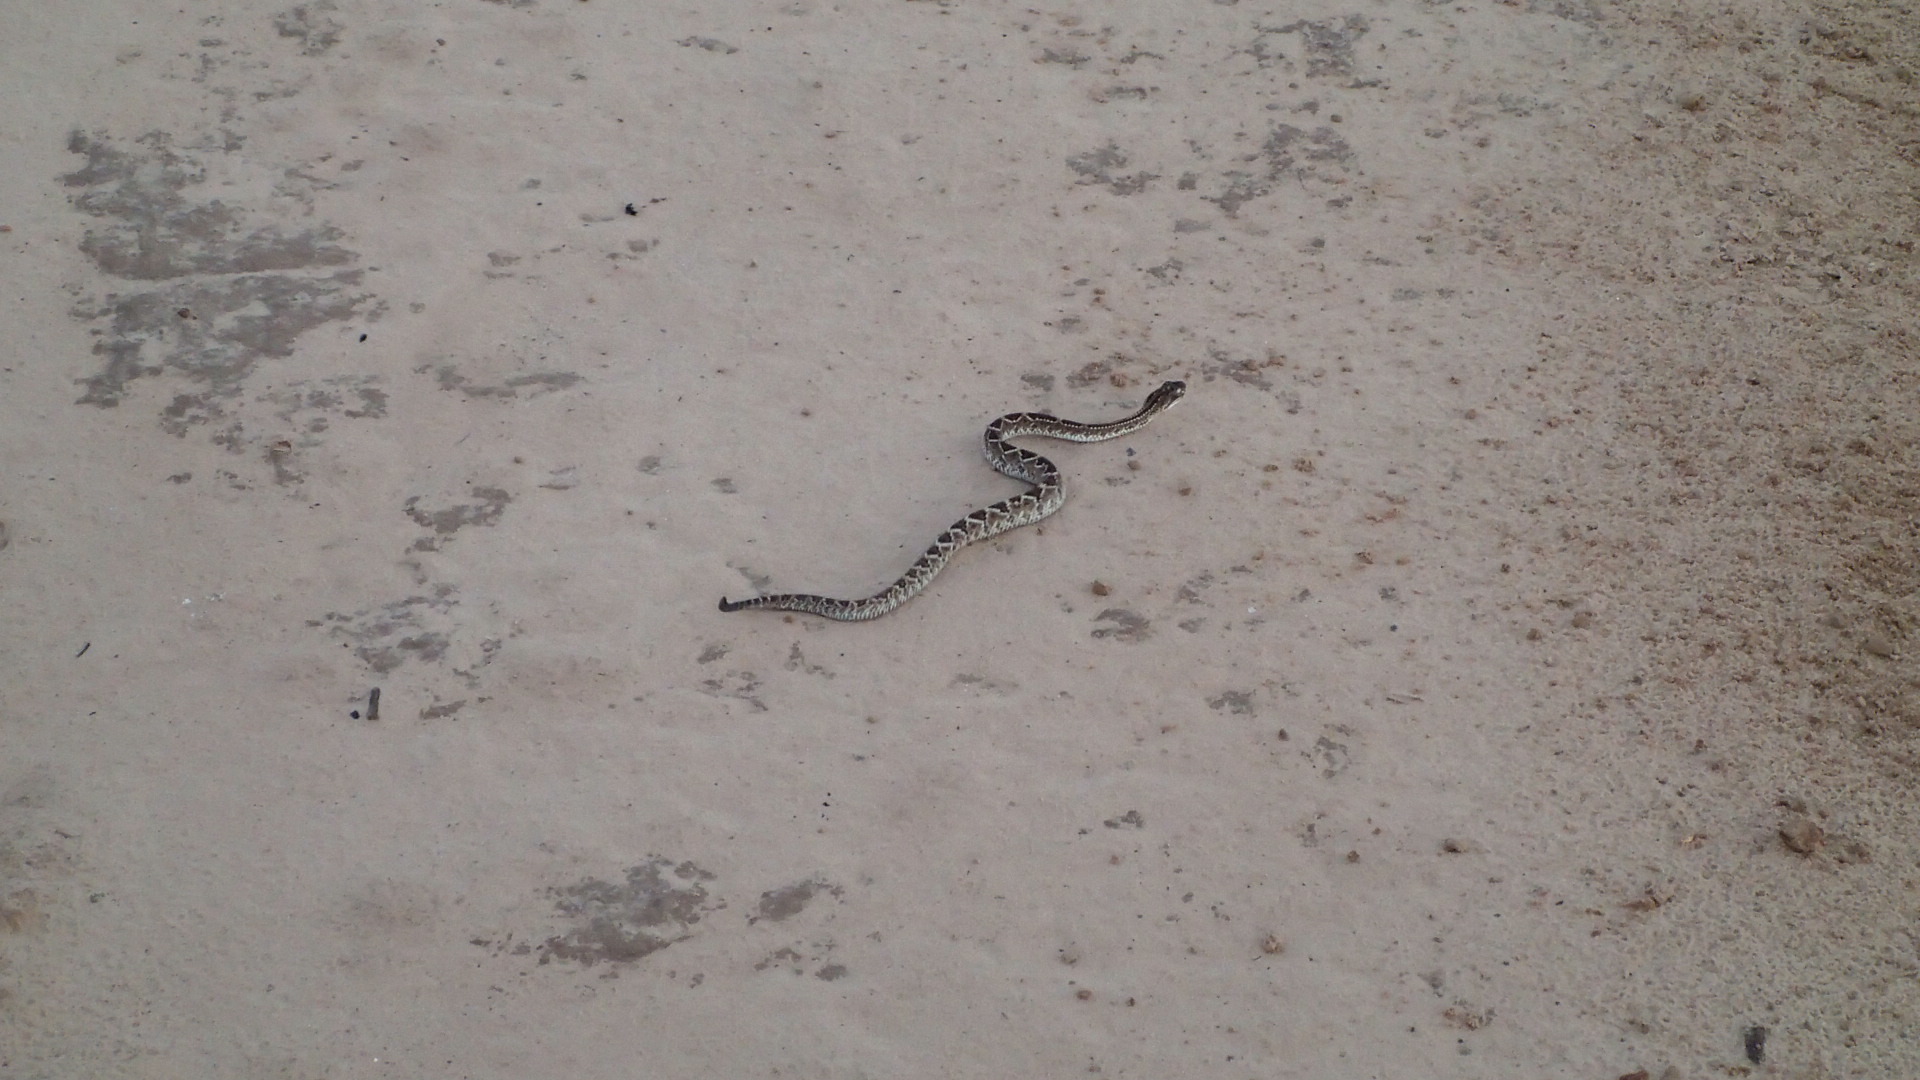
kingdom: Animalia
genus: Crotalus
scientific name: Crotalus durissus
